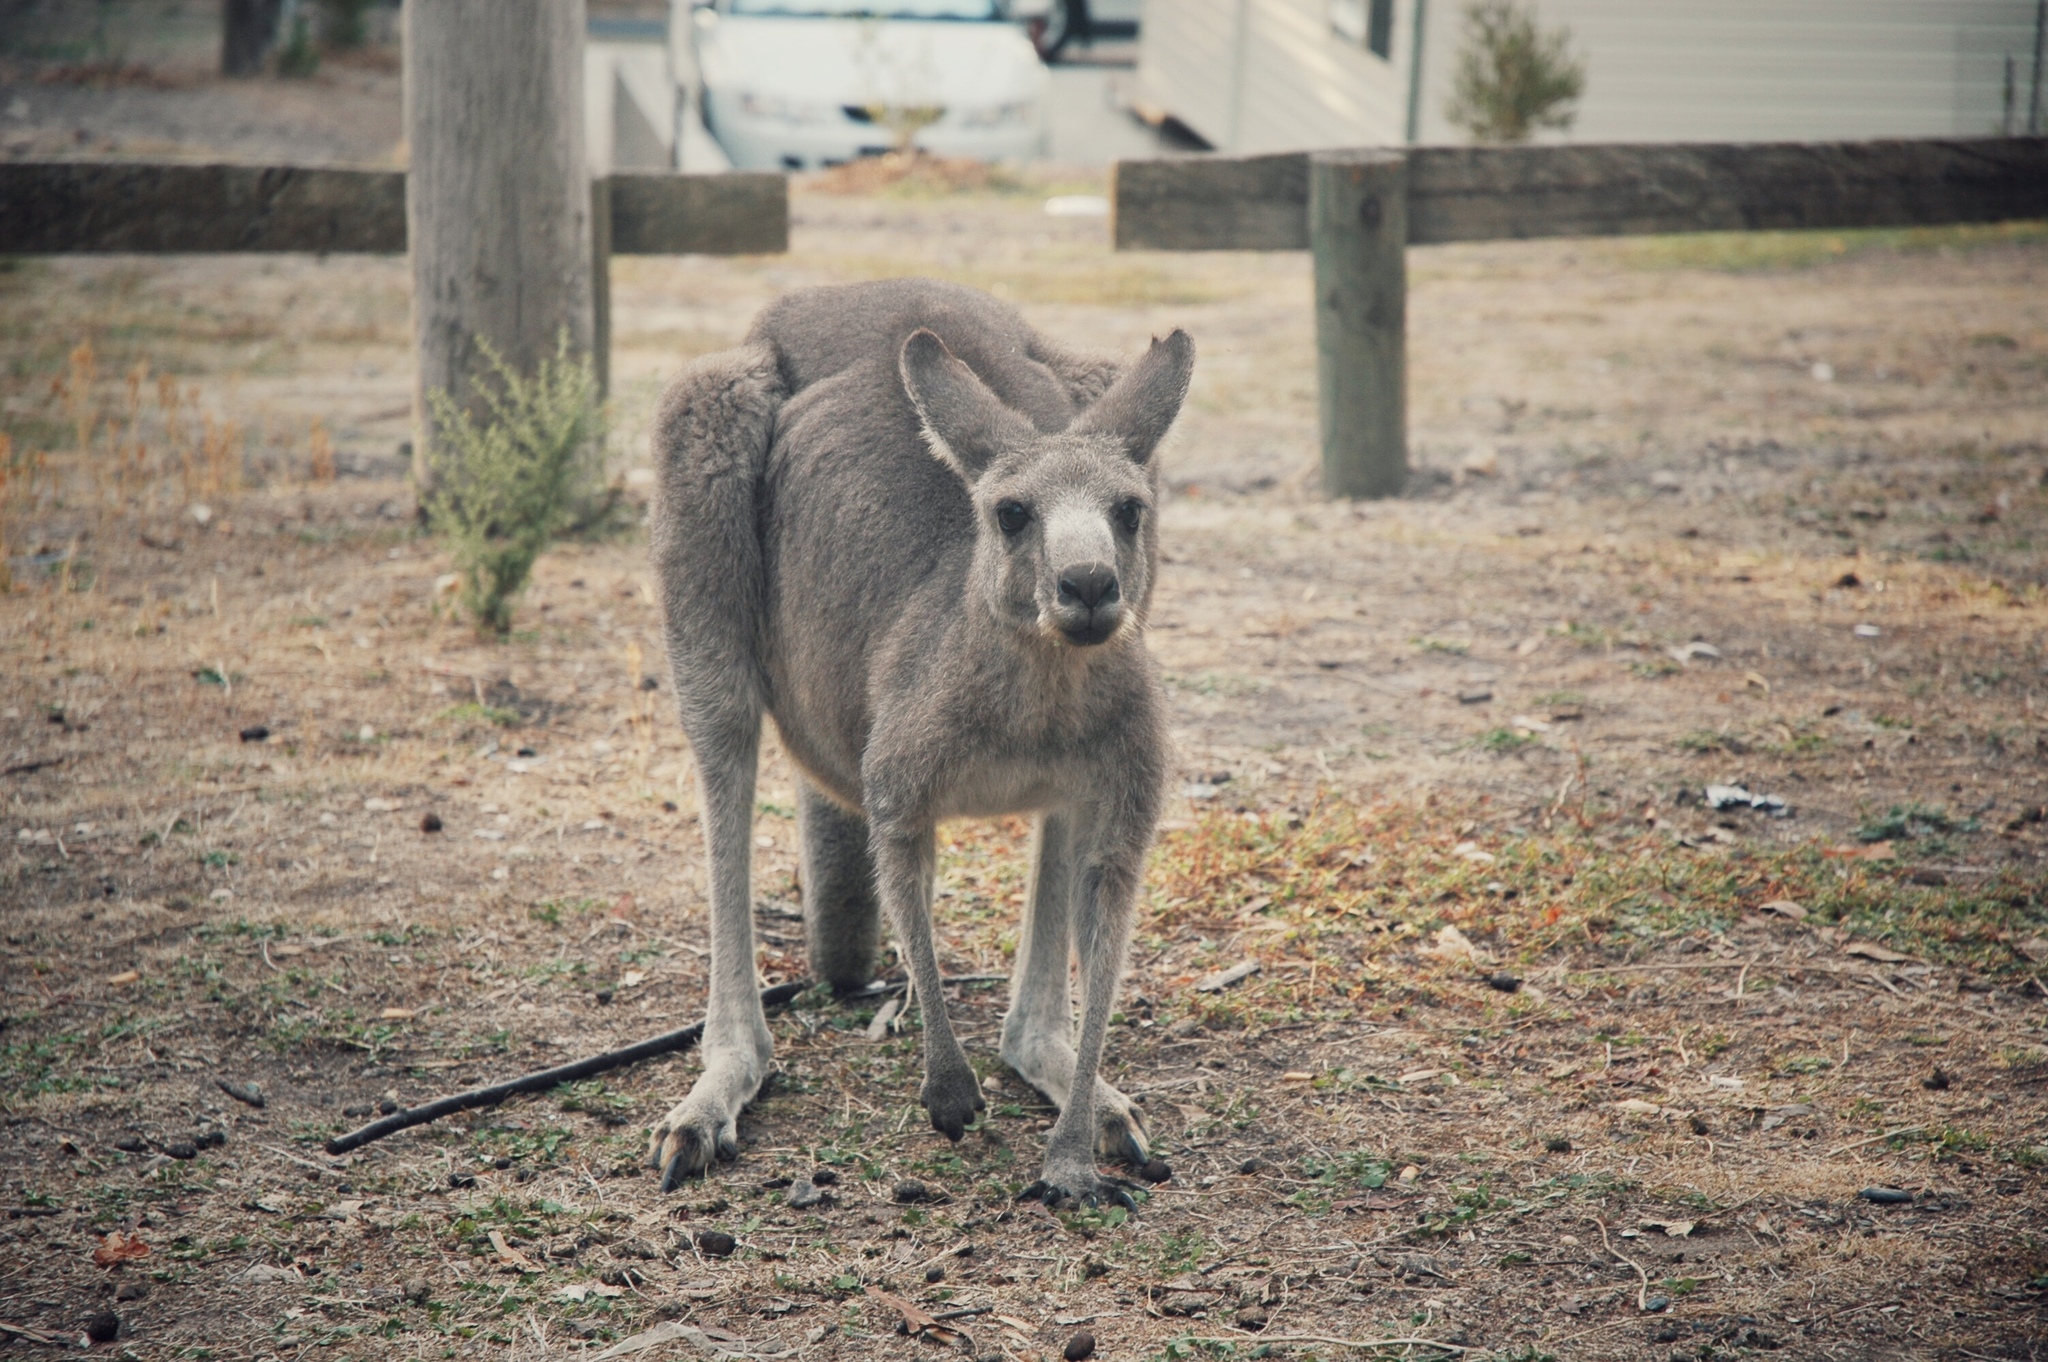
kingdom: Animalia
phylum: Chordata
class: Mammalia
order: Diprotodontia
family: Macropodidae
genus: Macropus
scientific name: Macropus giganteus
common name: Eastern grey kangaroo
